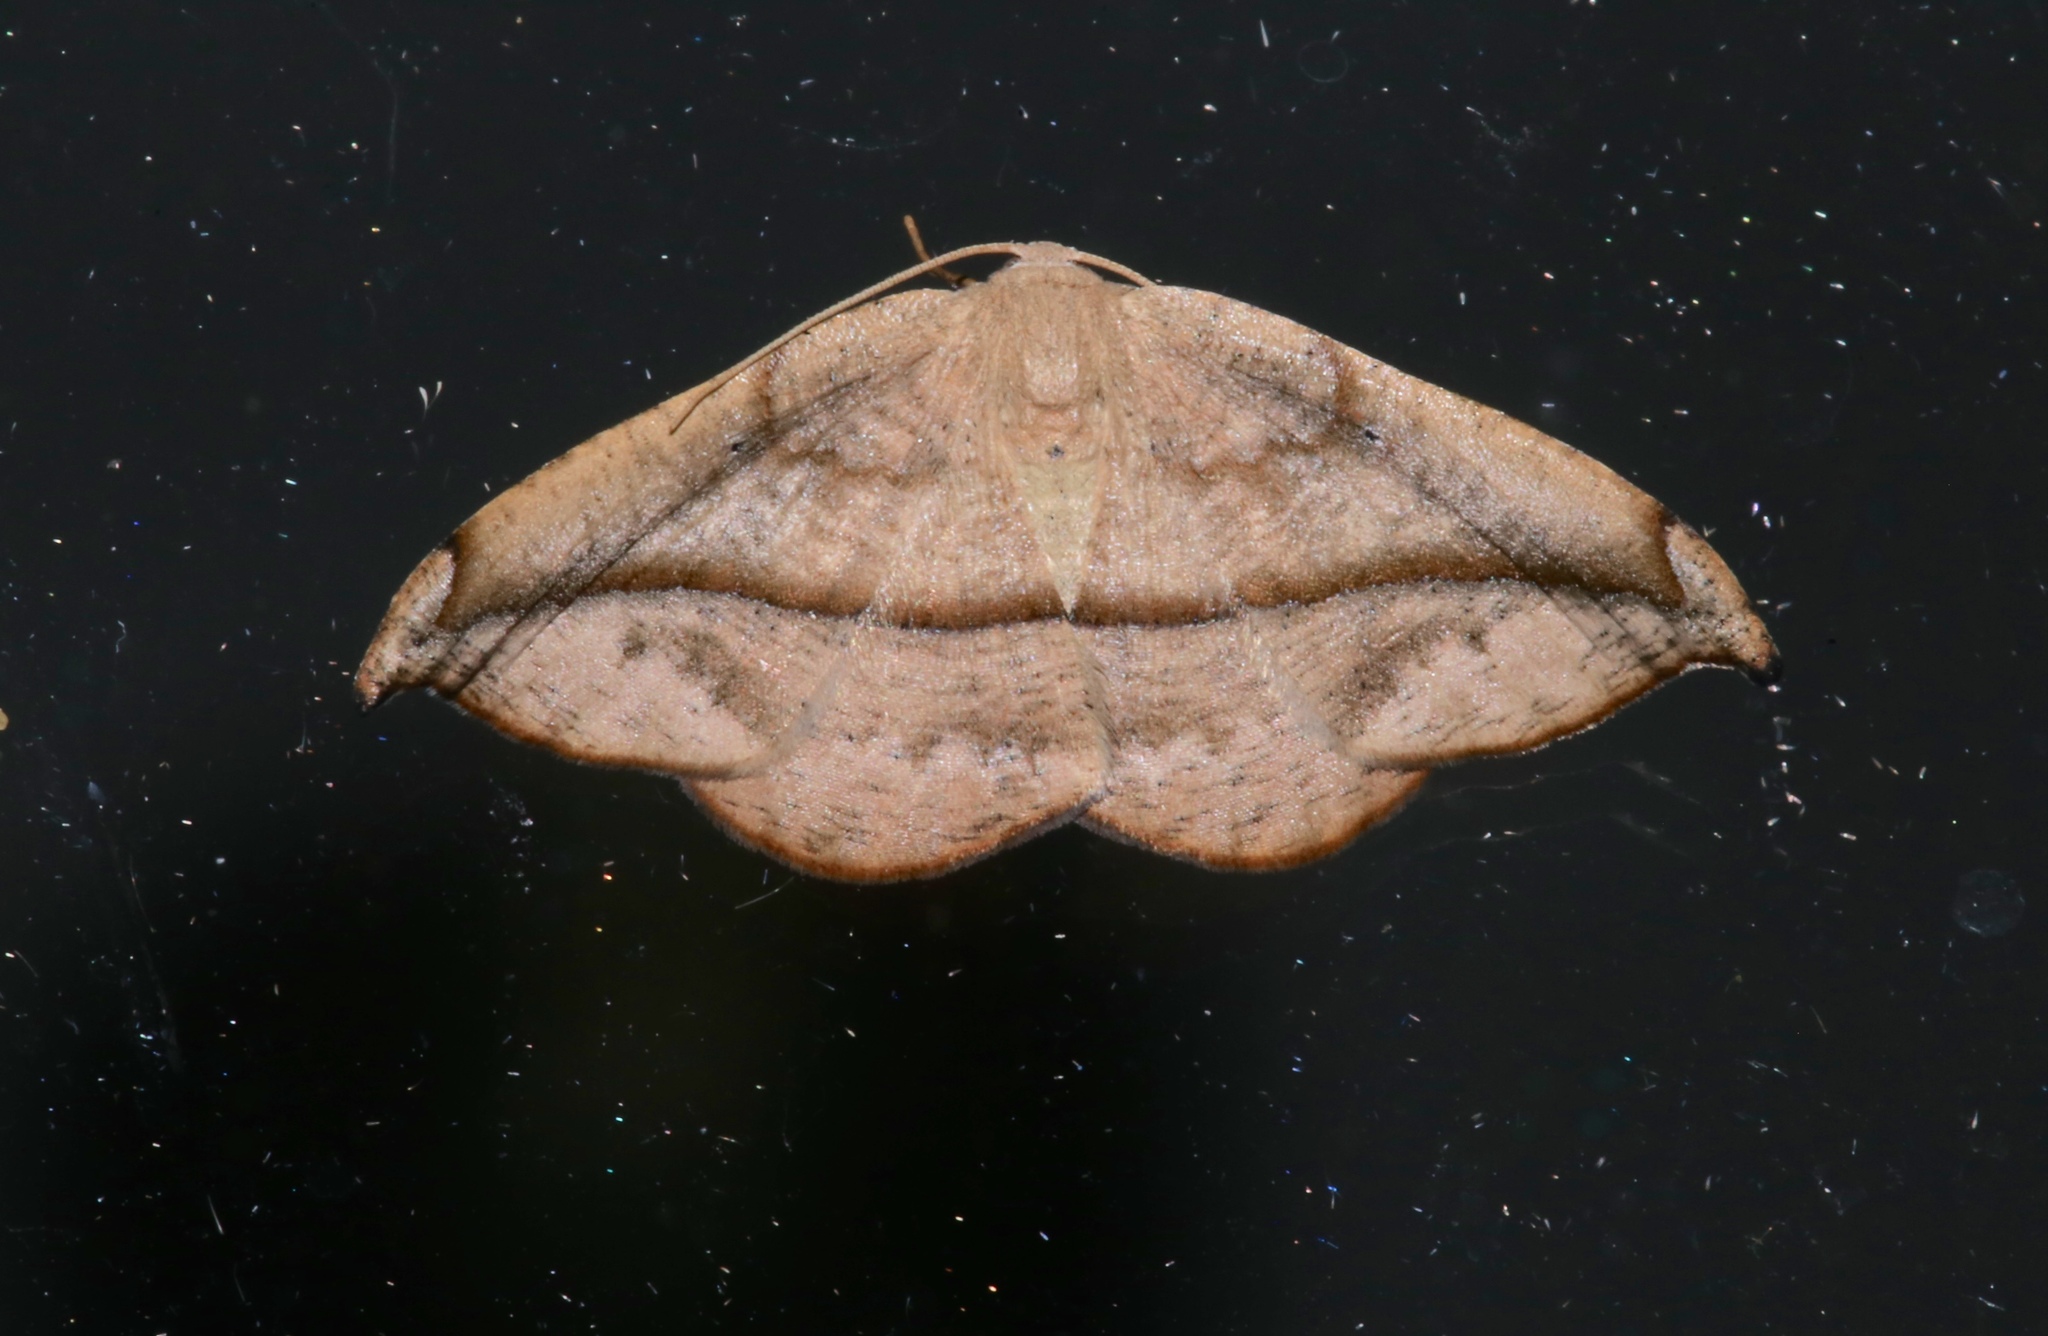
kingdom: Animalia
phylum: Arthropoda
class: Insecta
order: Lepidoptera
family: Geometridae
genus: Patalene
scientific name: Patalene olyzonaria
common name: Juniper geometer moth
